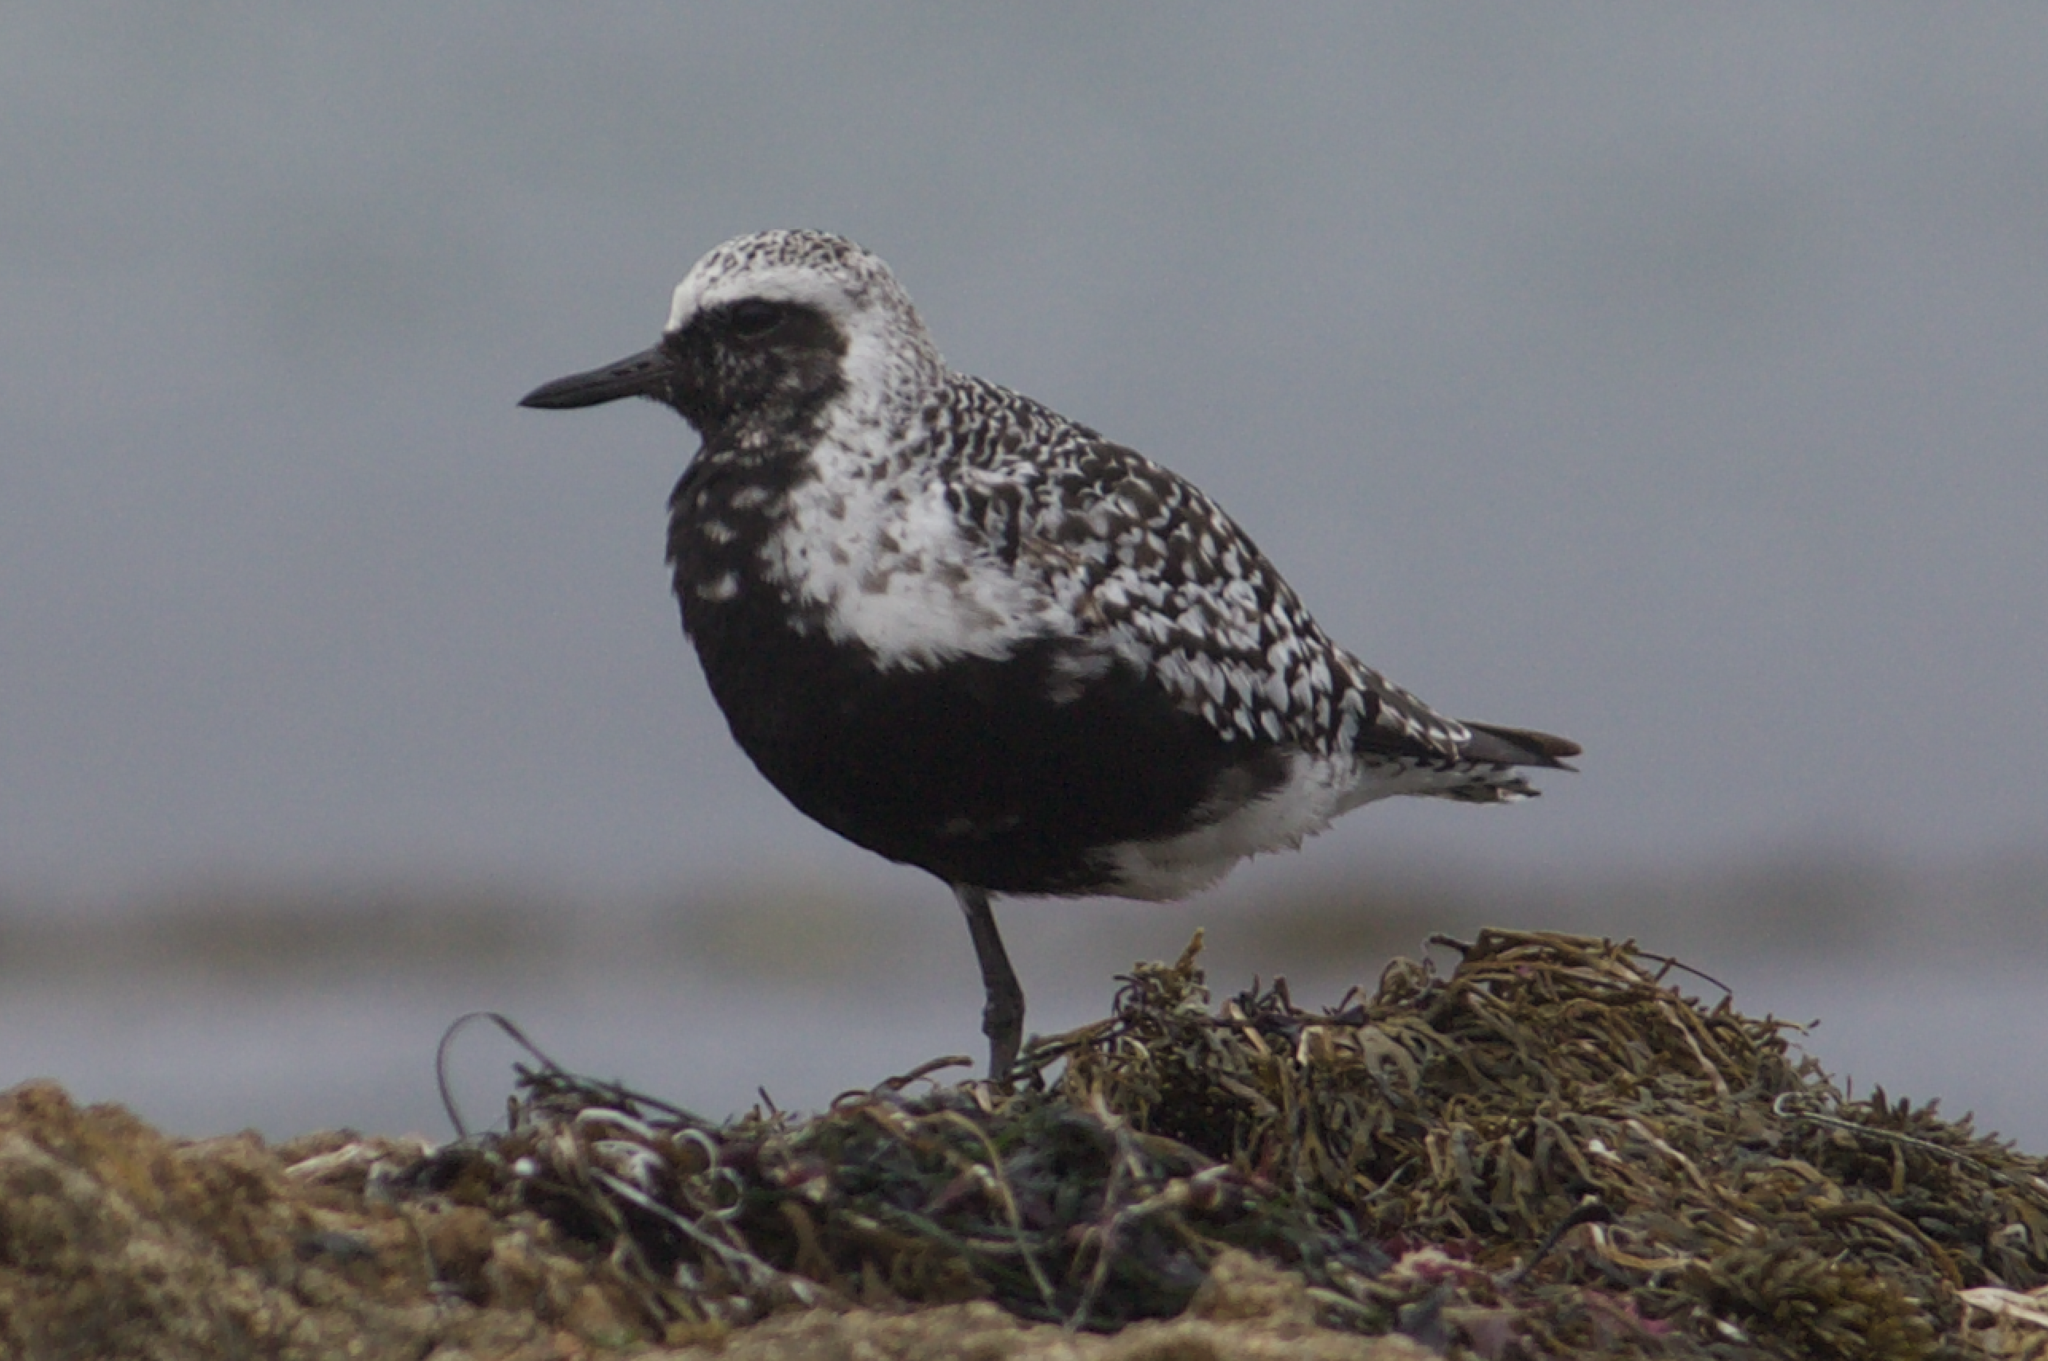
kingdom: Animalia
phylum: Chordata
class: Aves
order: Charadriiformes
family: Charadriidae
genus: Pluvialis
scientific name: Pluvialis squatarola
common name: Grey plover
